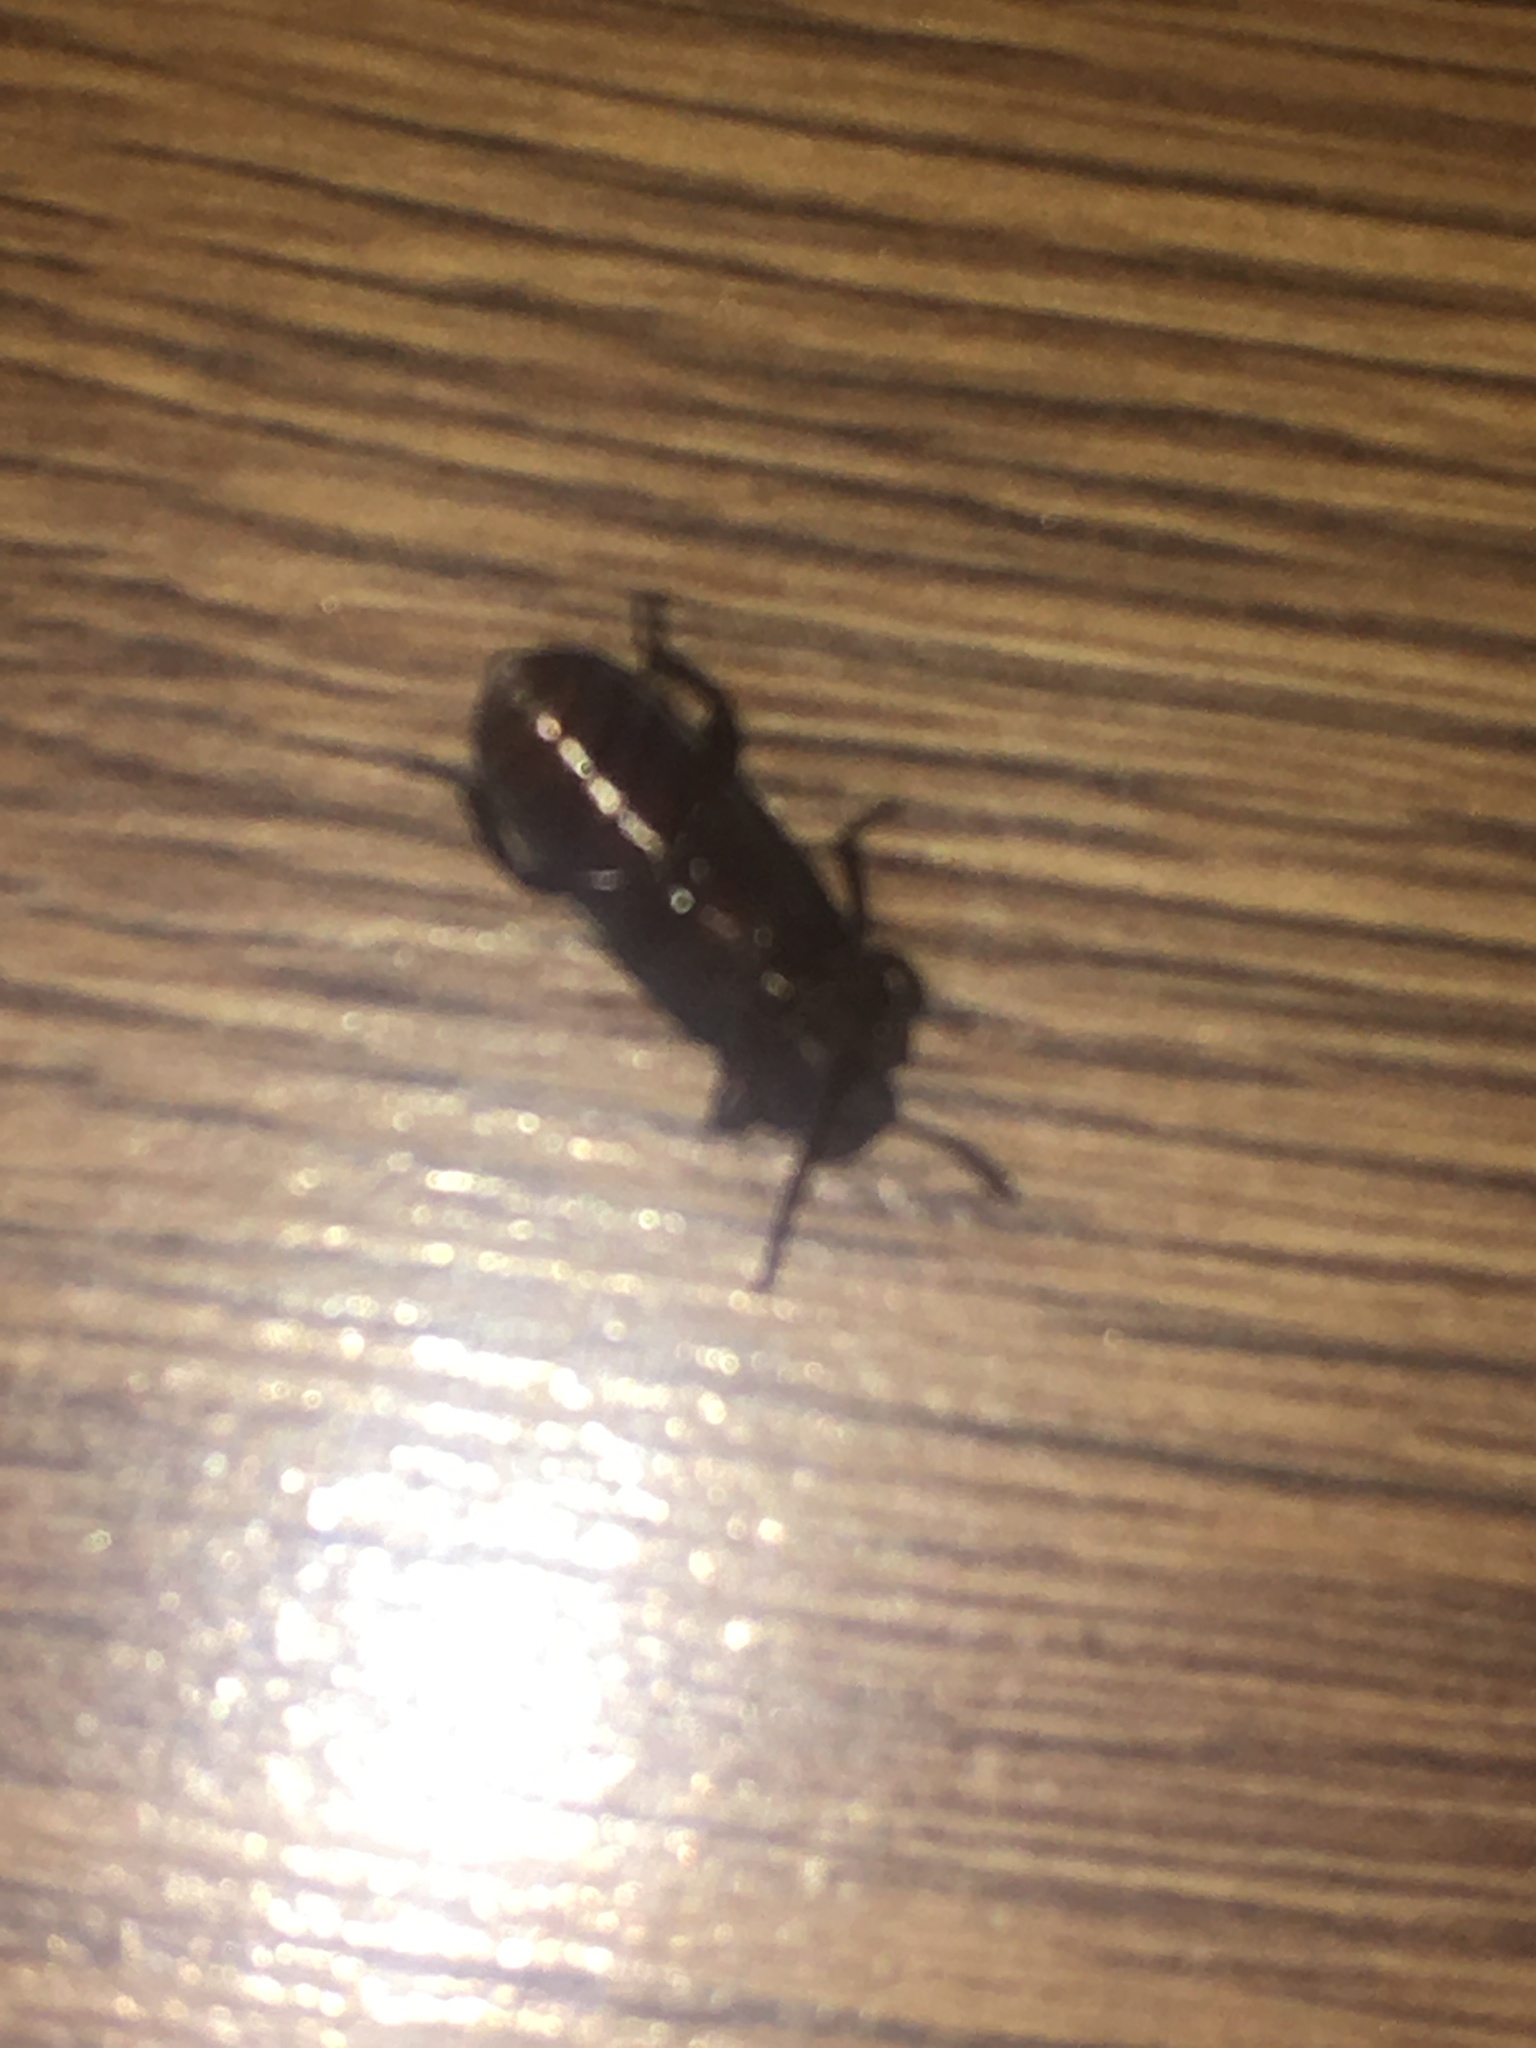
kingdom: Animalia
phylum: Arthropoda
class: Insecta
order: Coleoptera
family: Tenebrionidae
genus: Tenebrio
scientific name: Tenebrio molitor
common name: Hardback beetle
